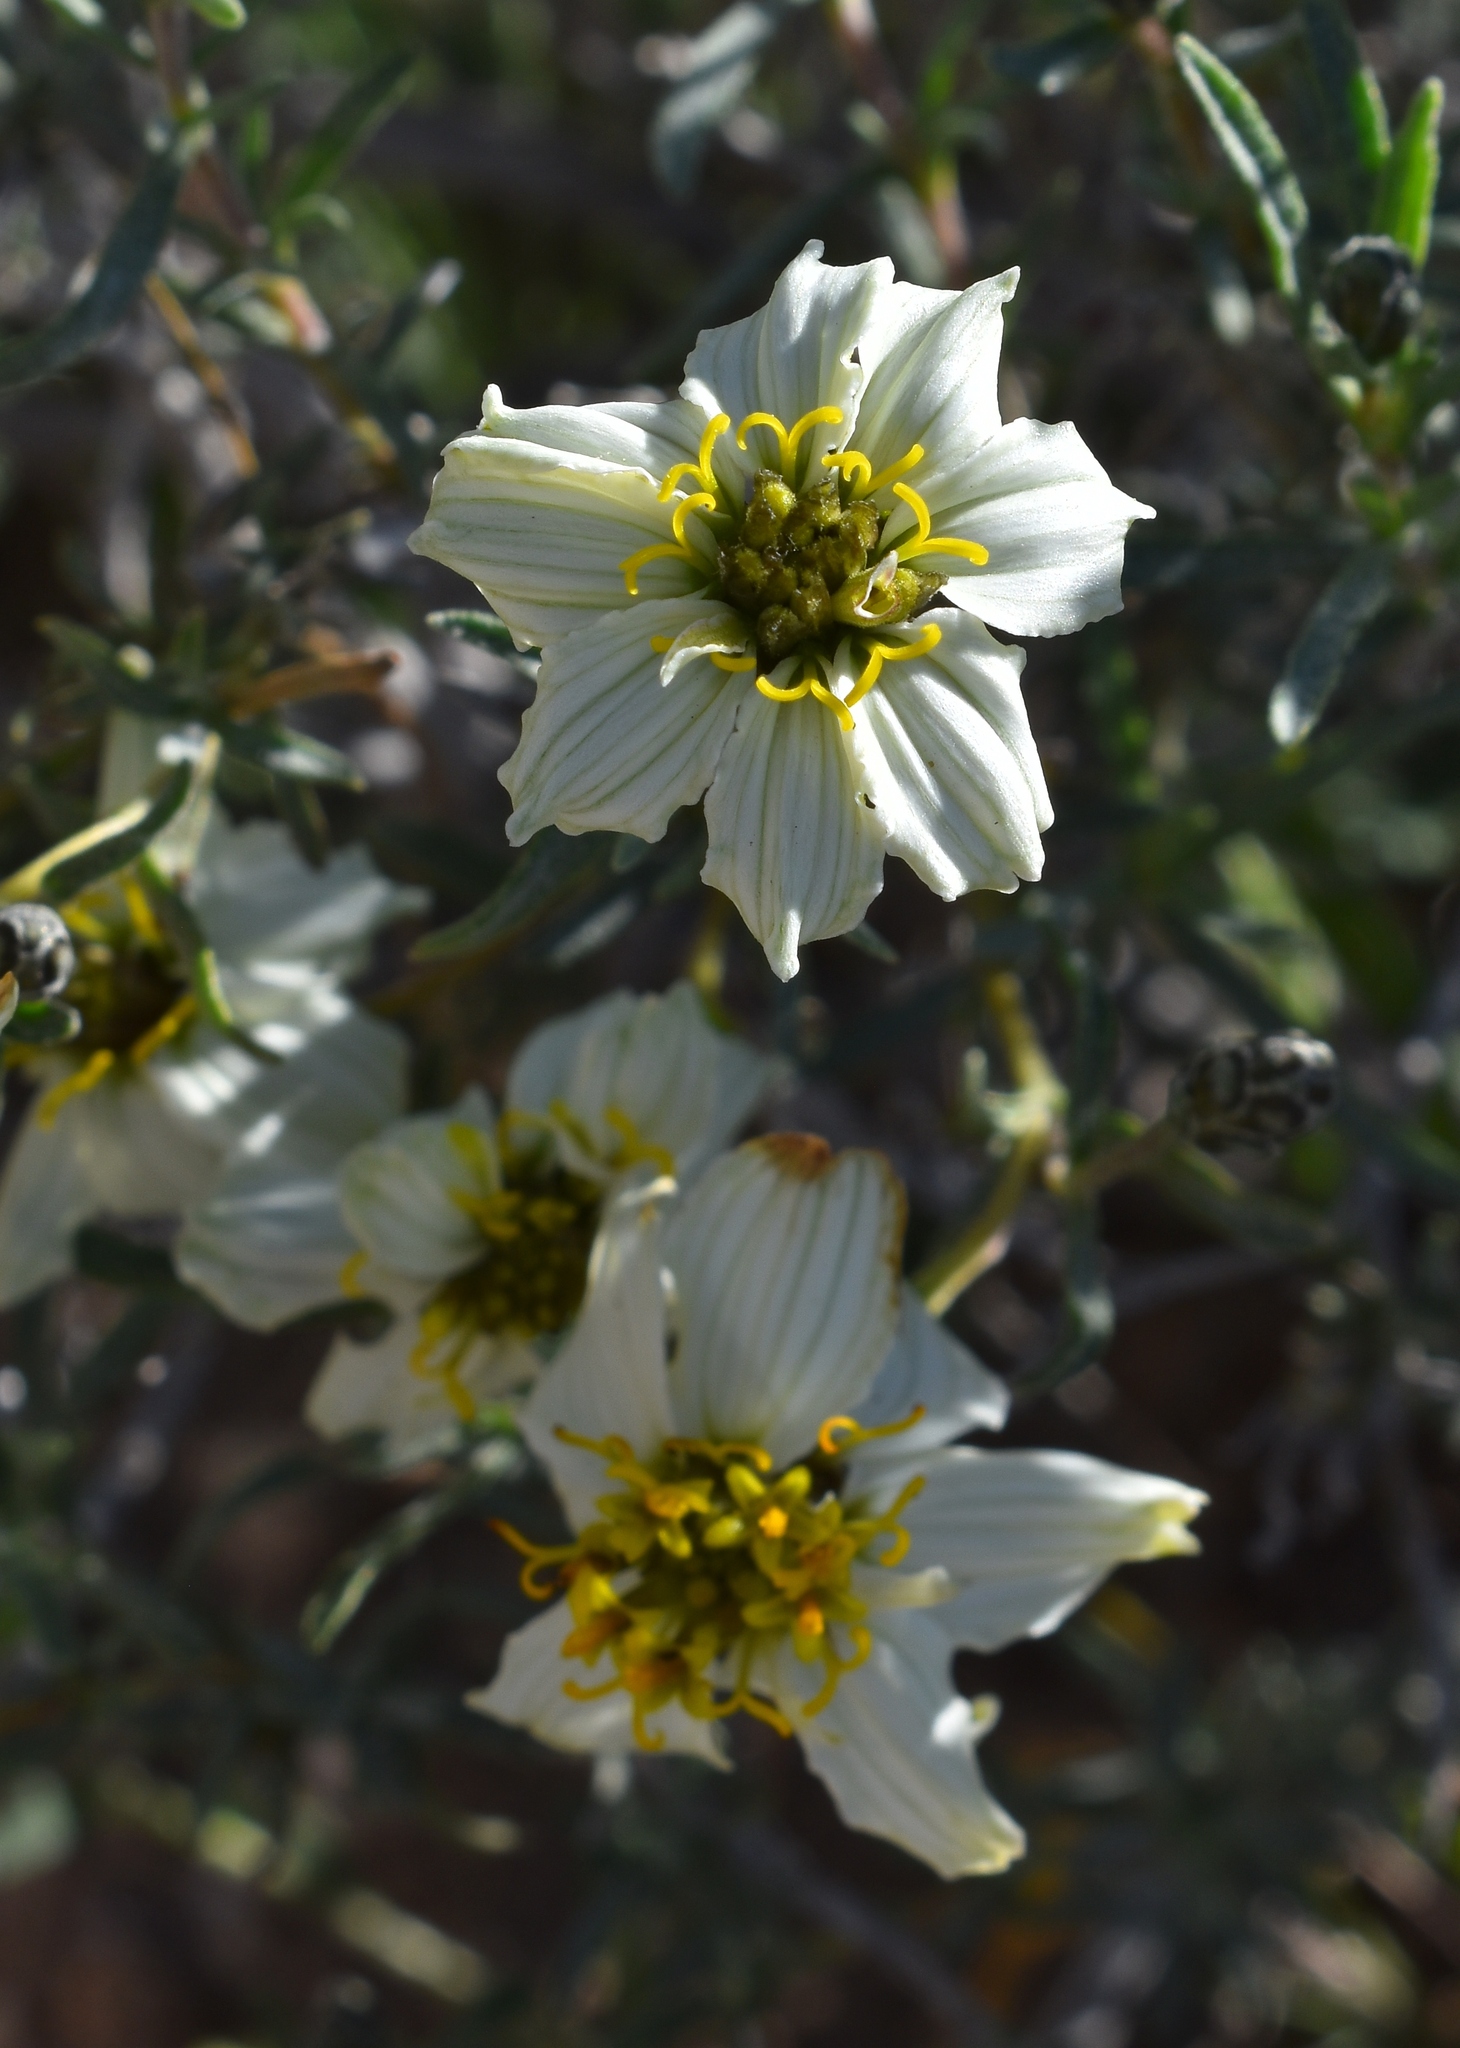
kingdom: Plantae
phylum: Tracheophyta
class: Magnoliopsida
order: Asterales
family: Asteraceae
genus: Zinnia
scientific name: Zinnia acerosa
